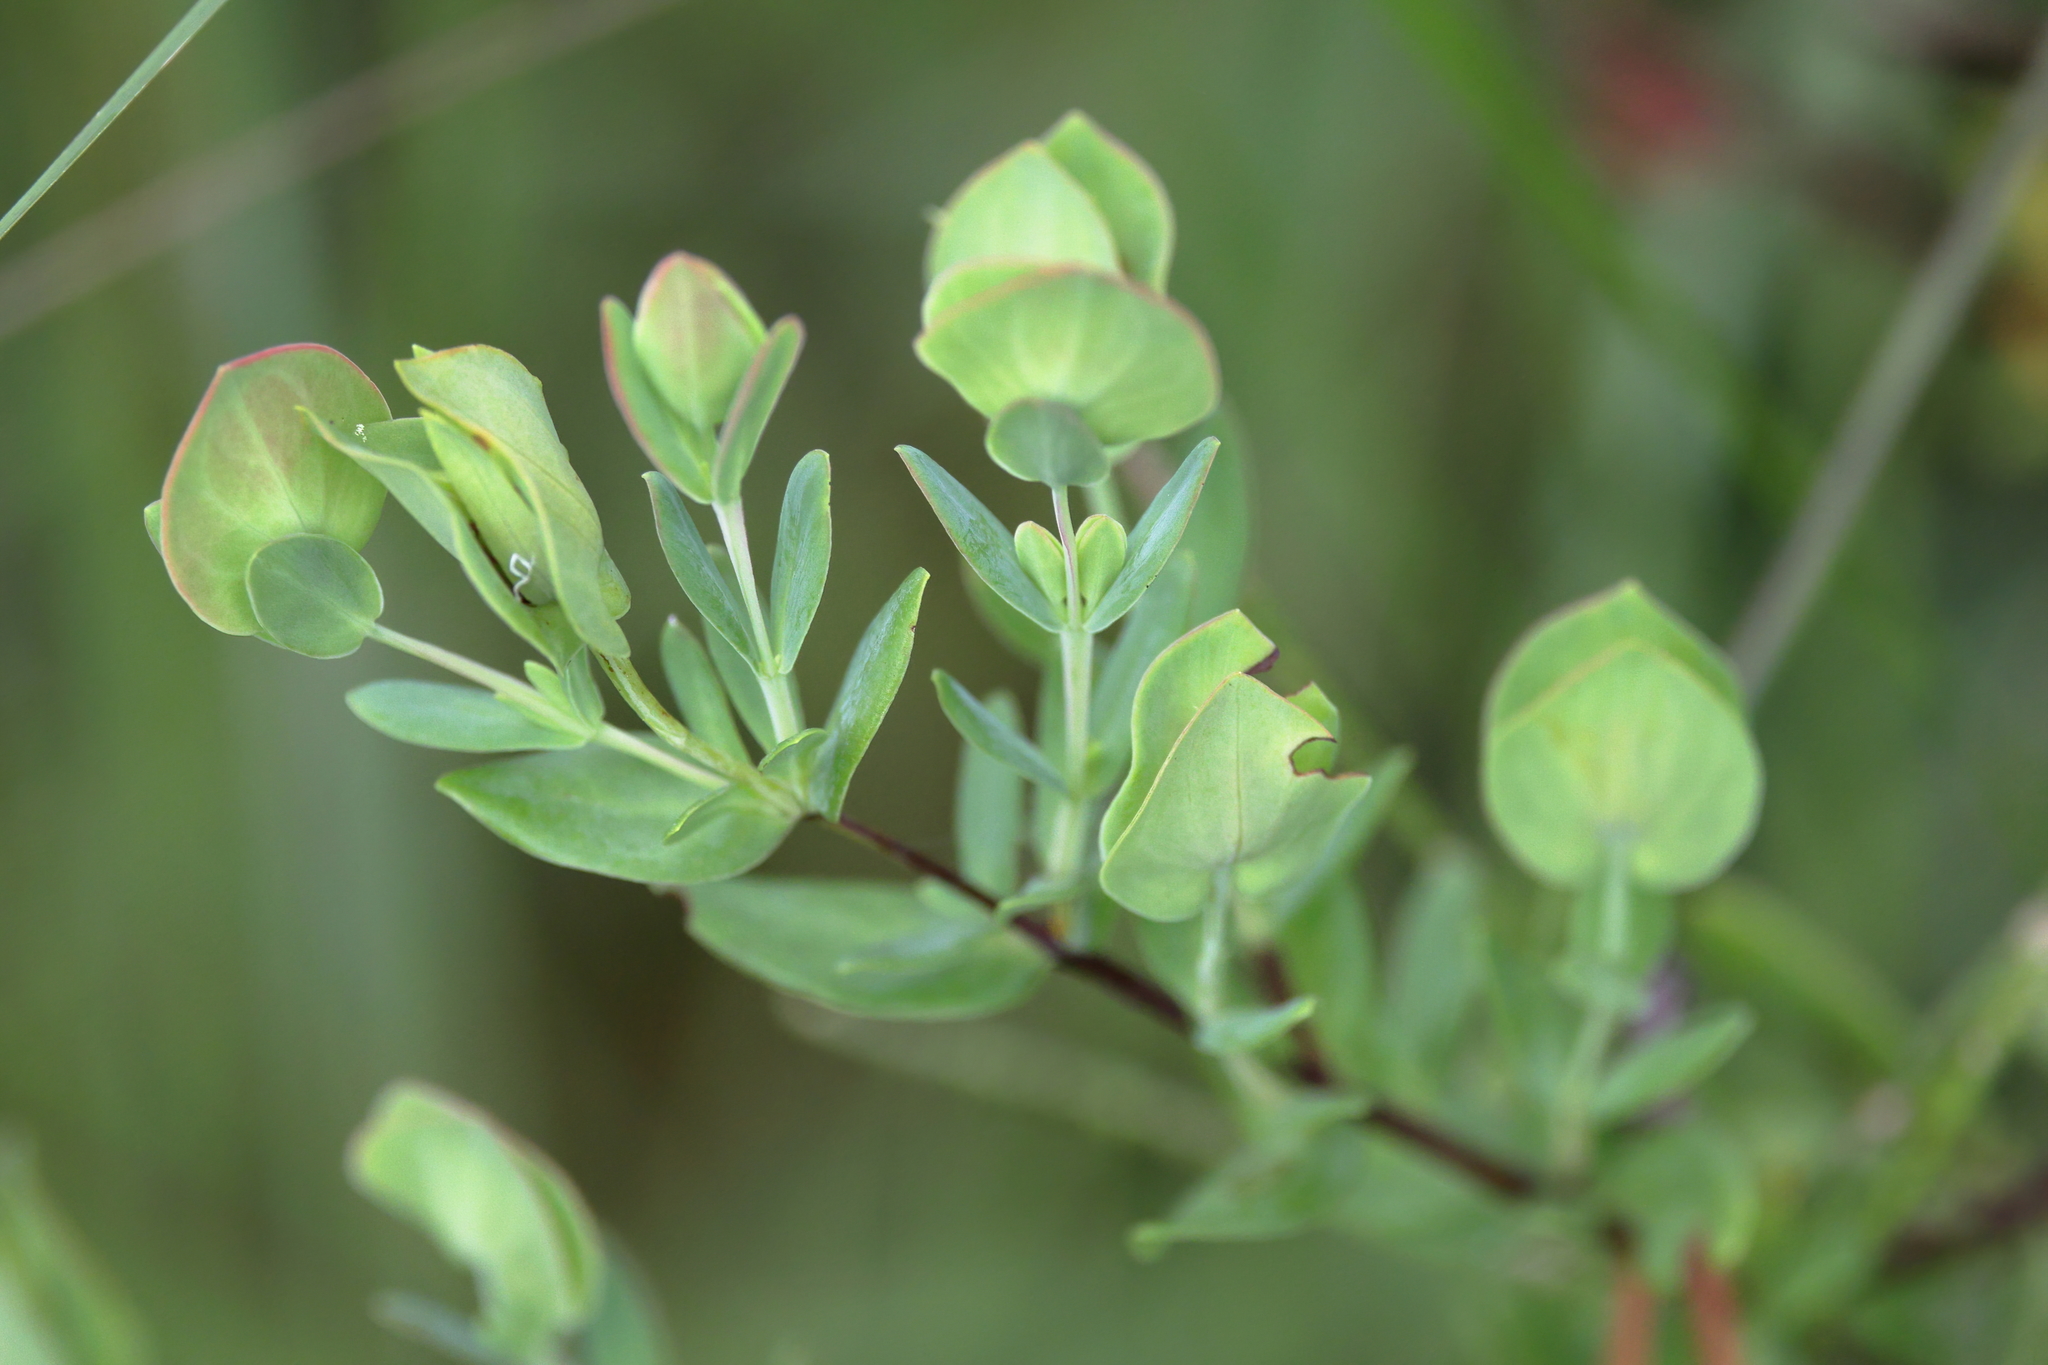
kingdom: Plantae
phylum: Tracheophyta
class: Magnoliopsida
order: Malpighiales
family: Hypericaceae
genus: Hypericum
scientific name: Hypericum crux-andreae
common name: St.-peter's-wort
